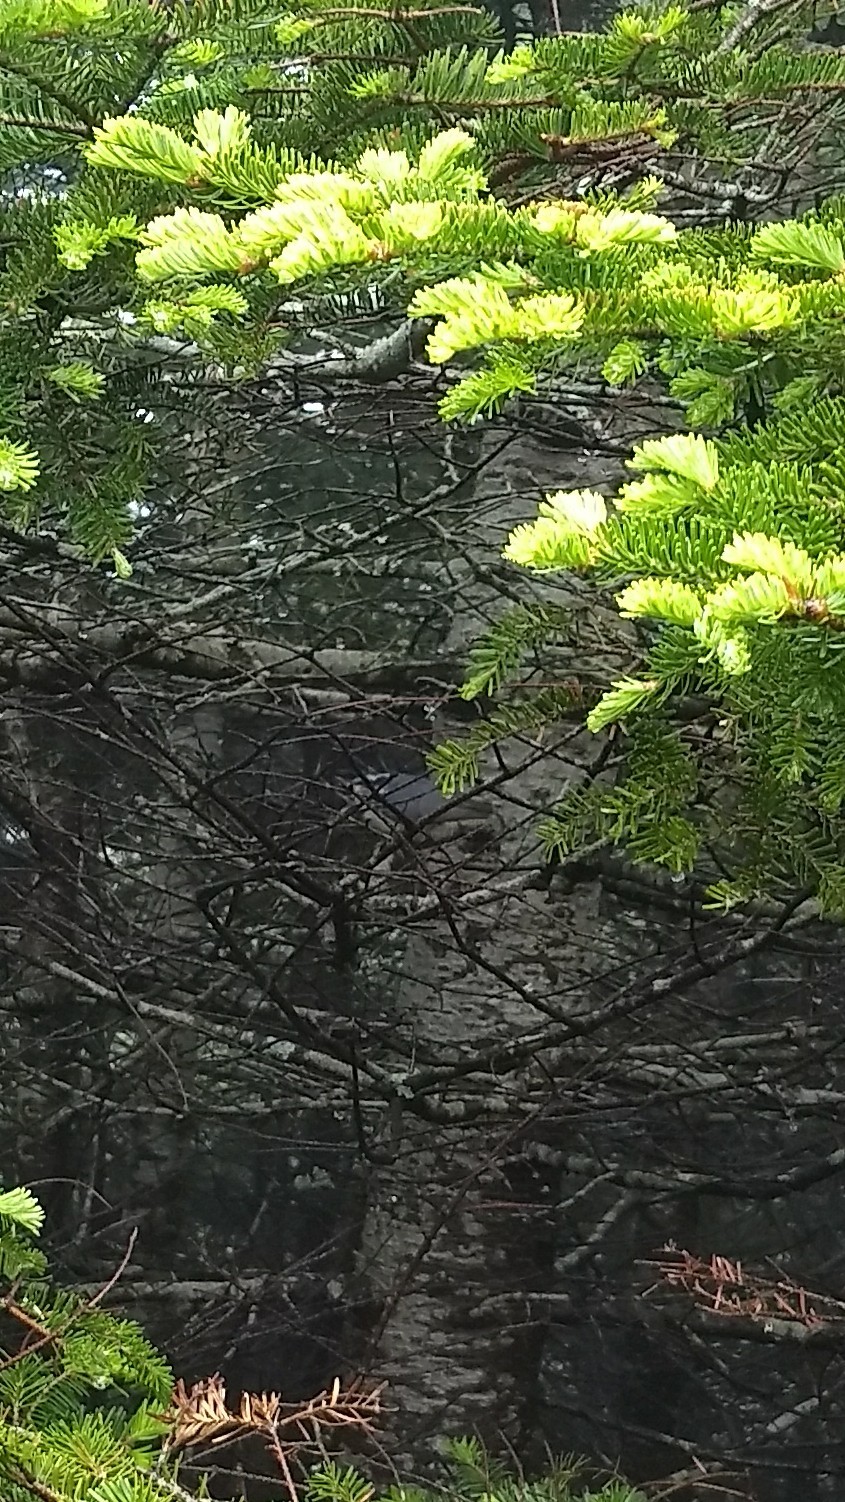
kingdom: Animalia
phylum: Chordata
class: Aves
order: Passeriformes
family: Sittidae
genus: Sitta
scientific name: Sitta canadensis
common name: Red-breasted nuthatch
